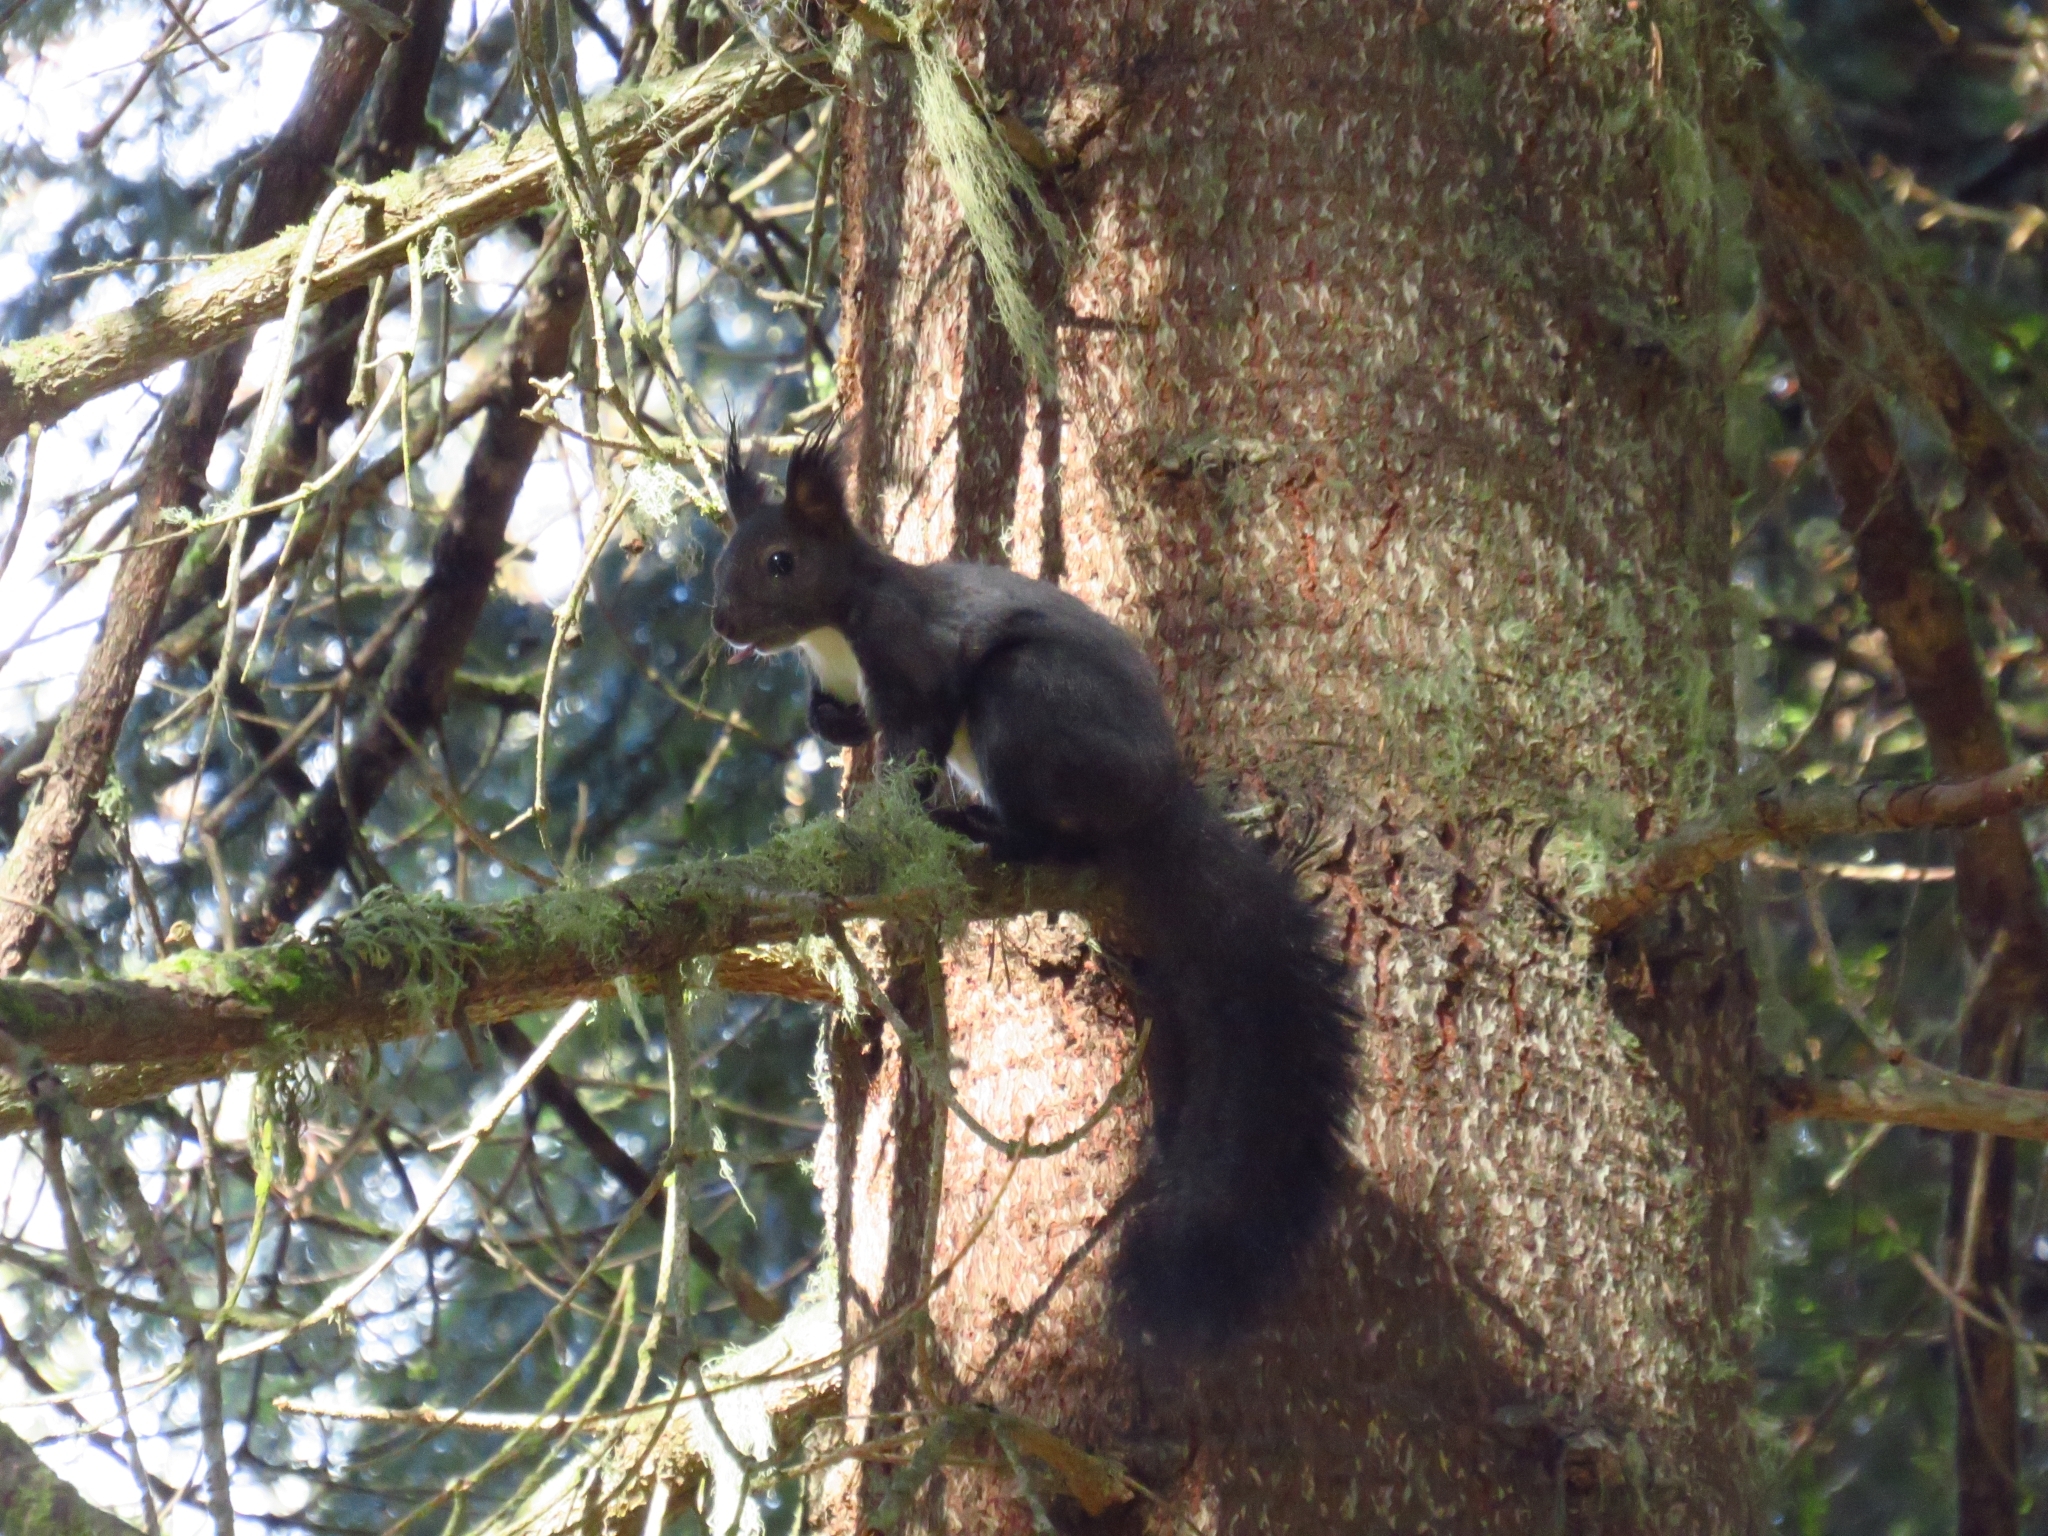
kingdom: Animalia
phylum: Chordata
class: Mammalia
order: Rodentia
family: Sciuridae
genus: Sciurus
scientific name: Sciurus vulgaris
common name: Eurasian red squirrel
